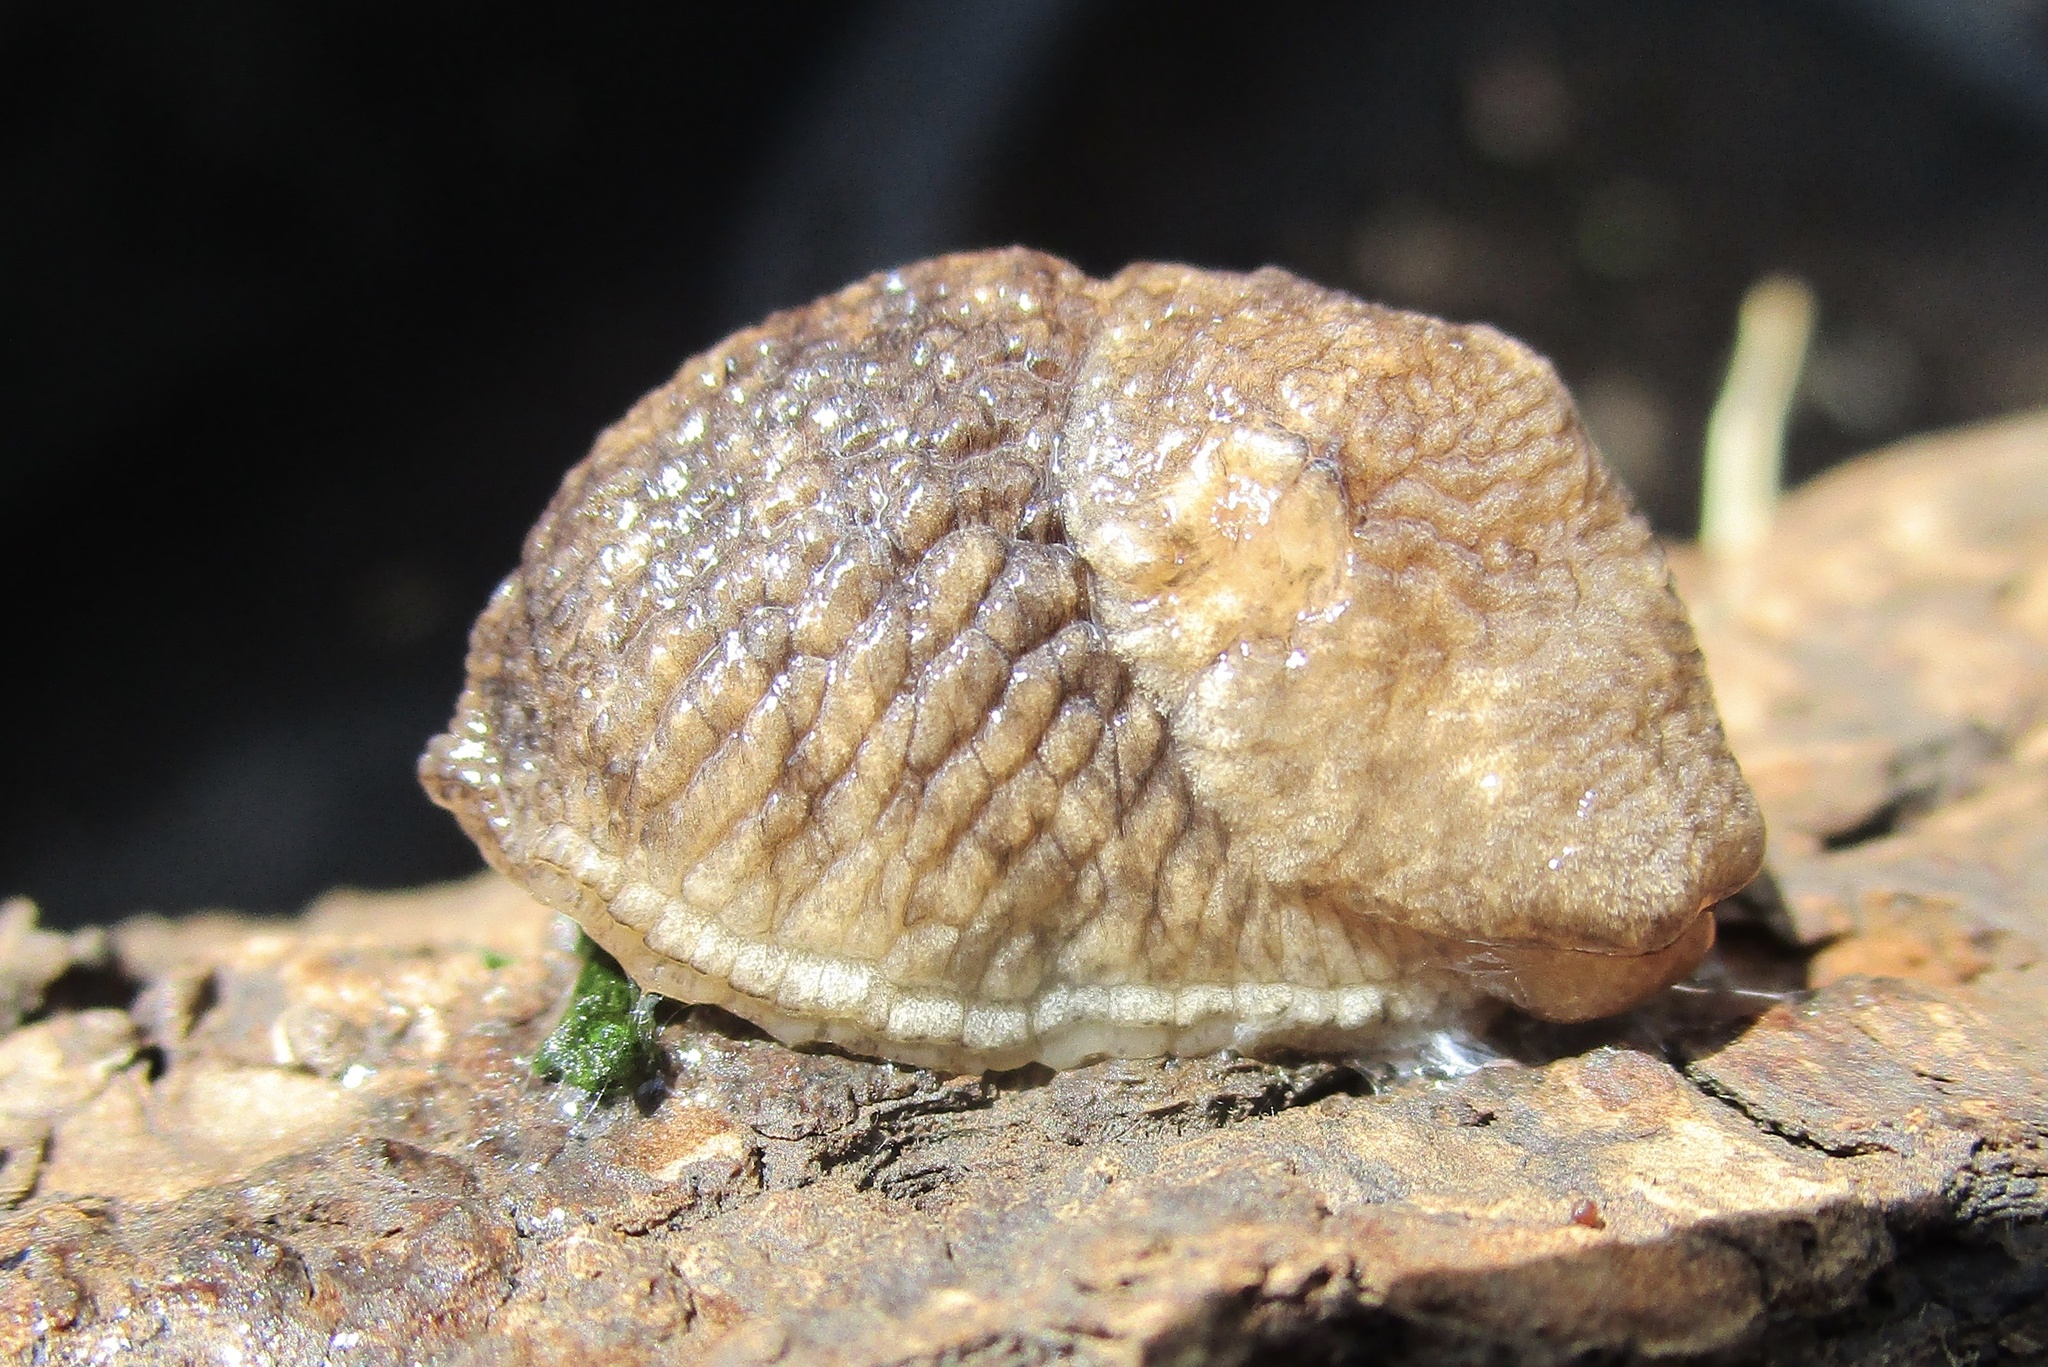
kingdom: Animalia
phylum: Mollusca
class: Gastropoda
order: Stylommatophora
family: Agriolimacidae
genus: Deroceras
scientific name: Deroceras reticulatum
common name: Gray field slug
